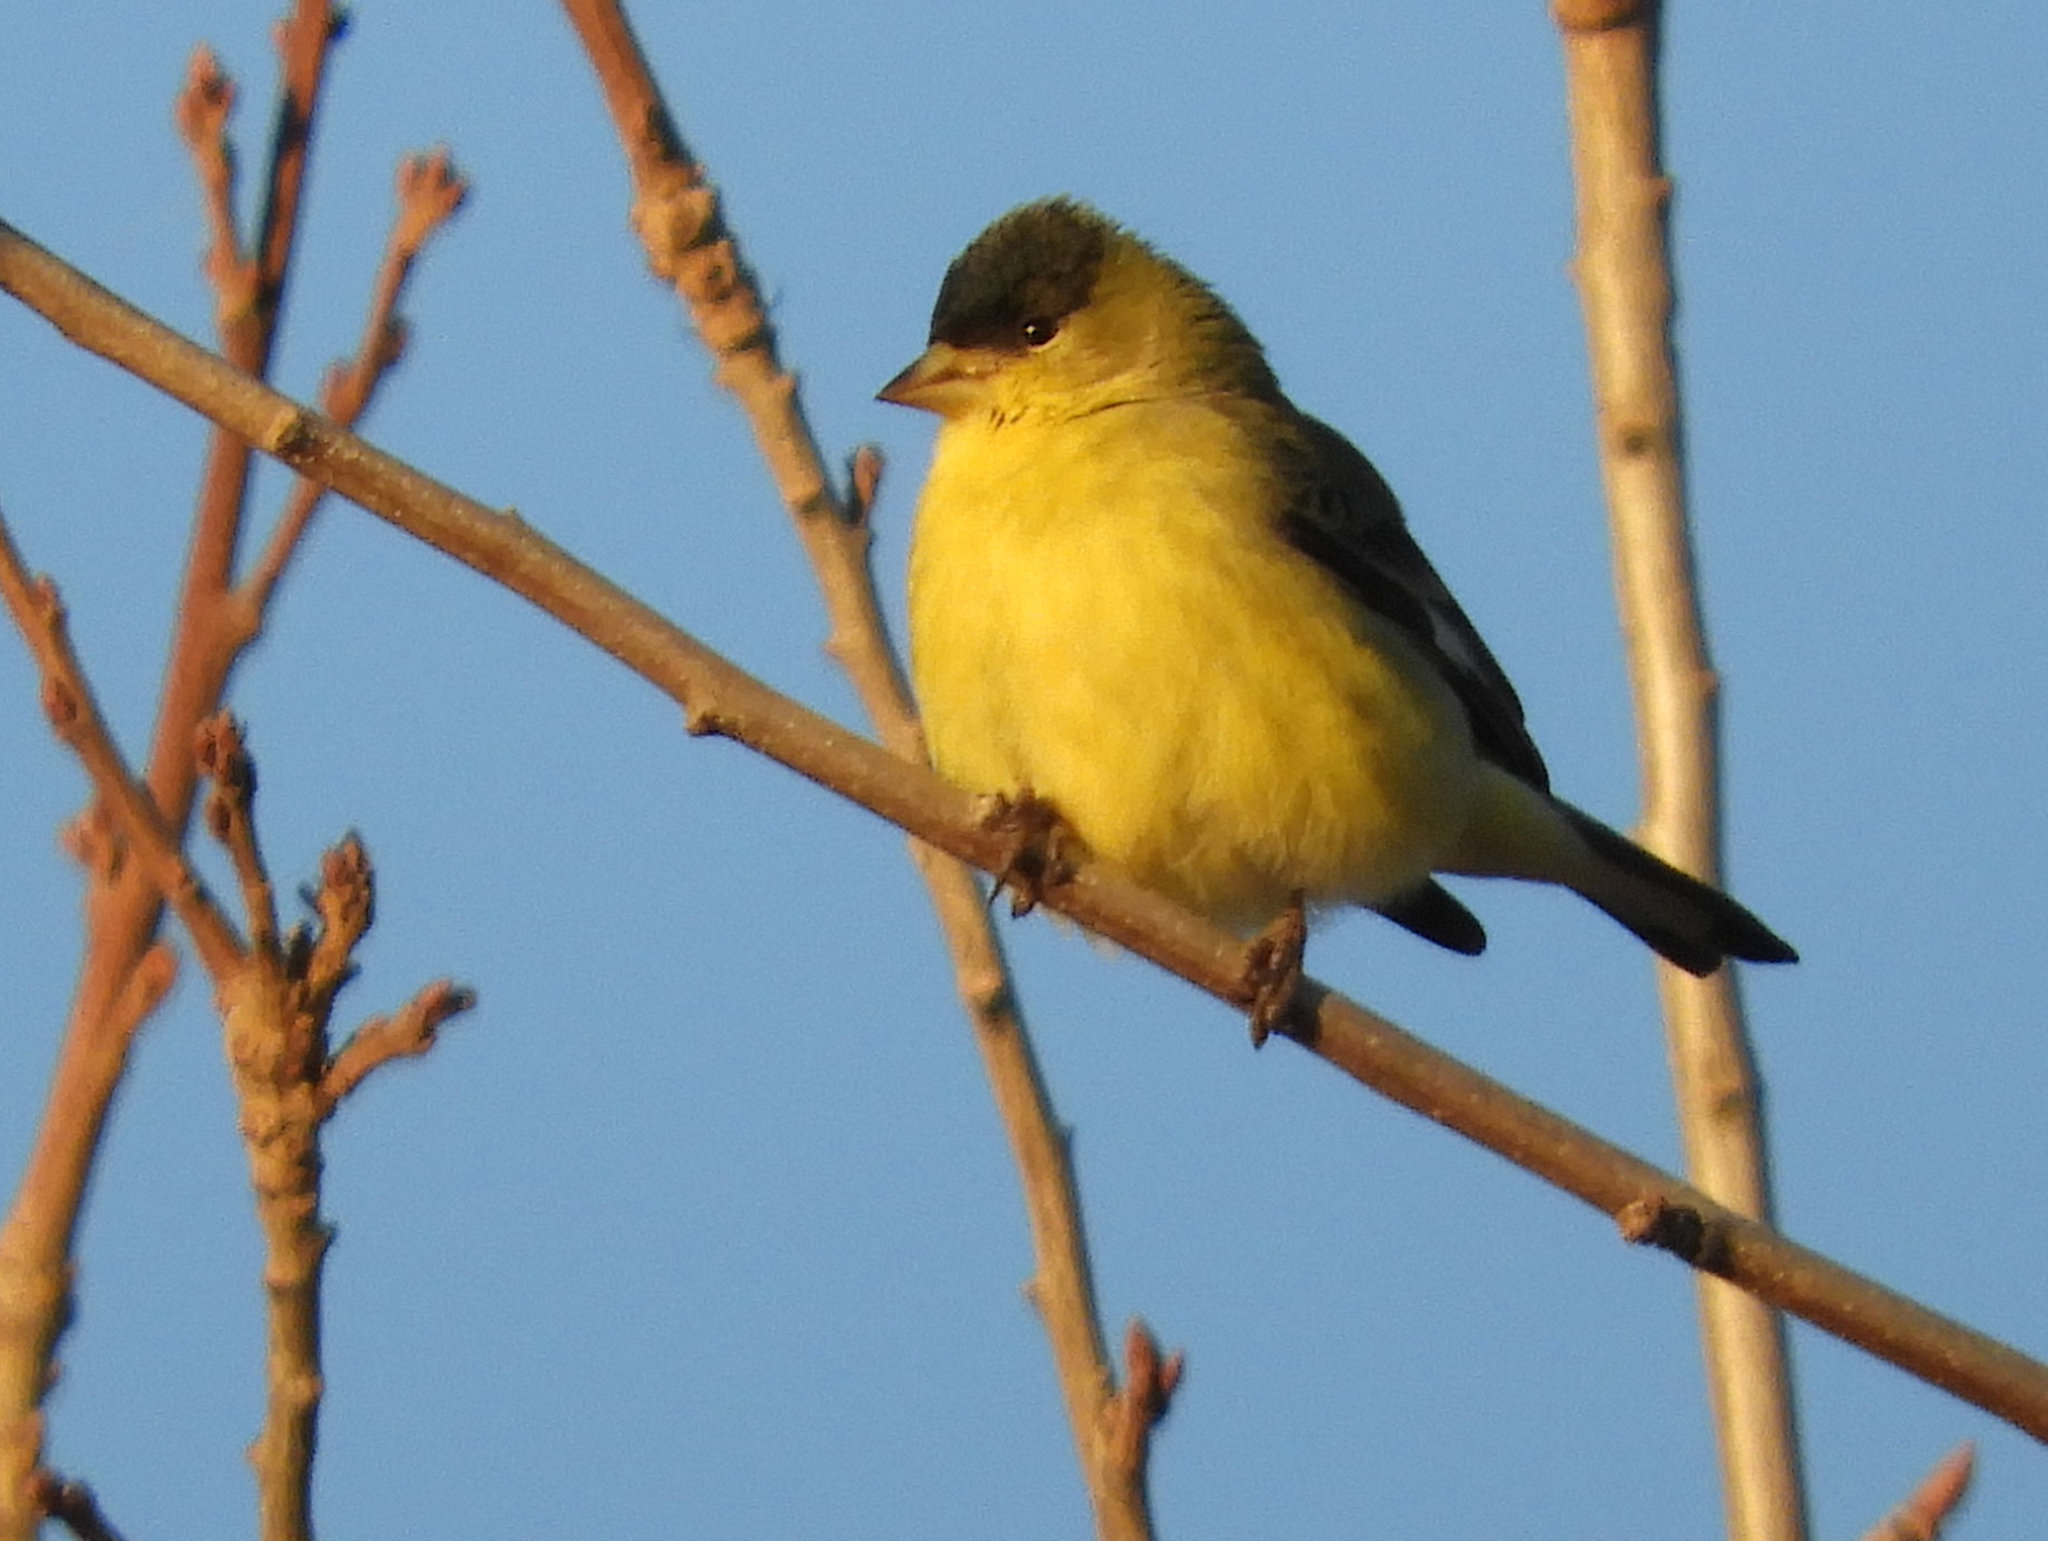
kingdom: Animalia
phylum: Chordata
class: Aves
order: Passeriformes
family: Fringillidae
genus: Spinus
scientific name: Spinus psaltria
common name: Lesser goldfinch
